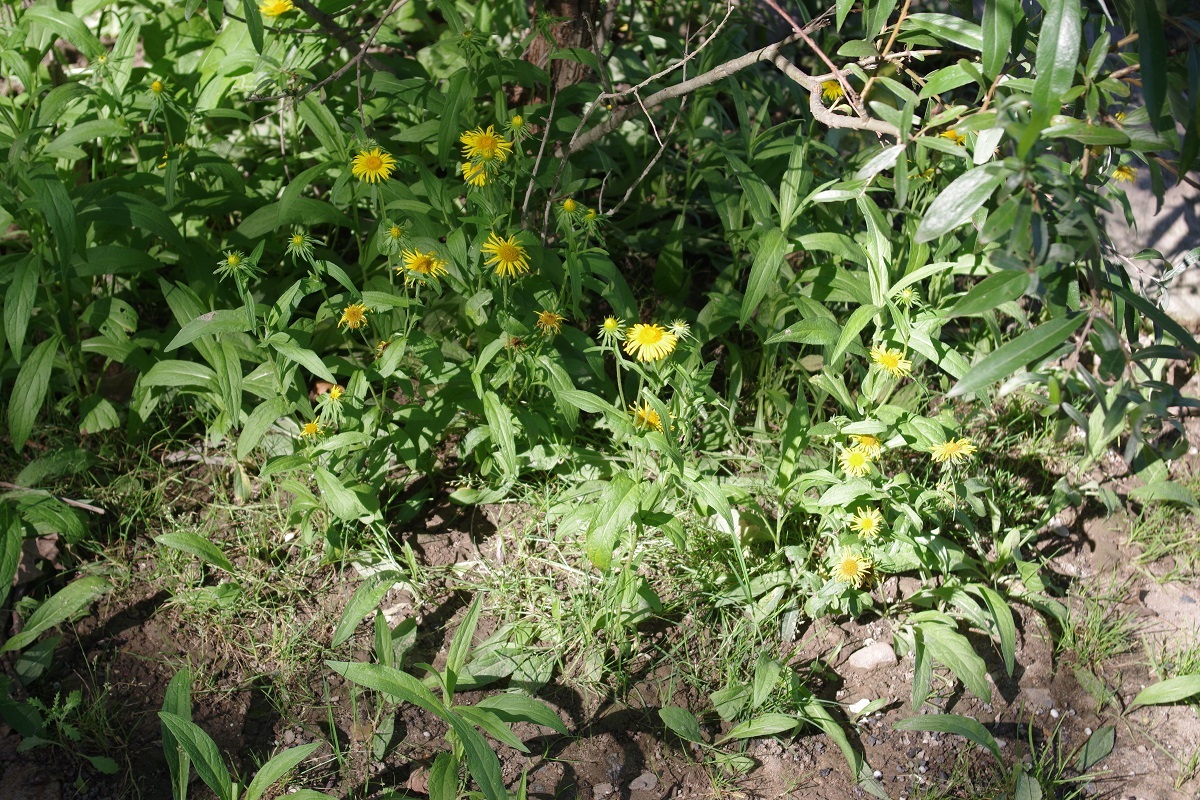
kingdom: Plantae
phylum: Tracheophyta
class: Magnoliopsida
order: Asterales
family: Asteraceae
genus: Pentanema
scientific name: Pentanema britannicum
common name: British elecampane
